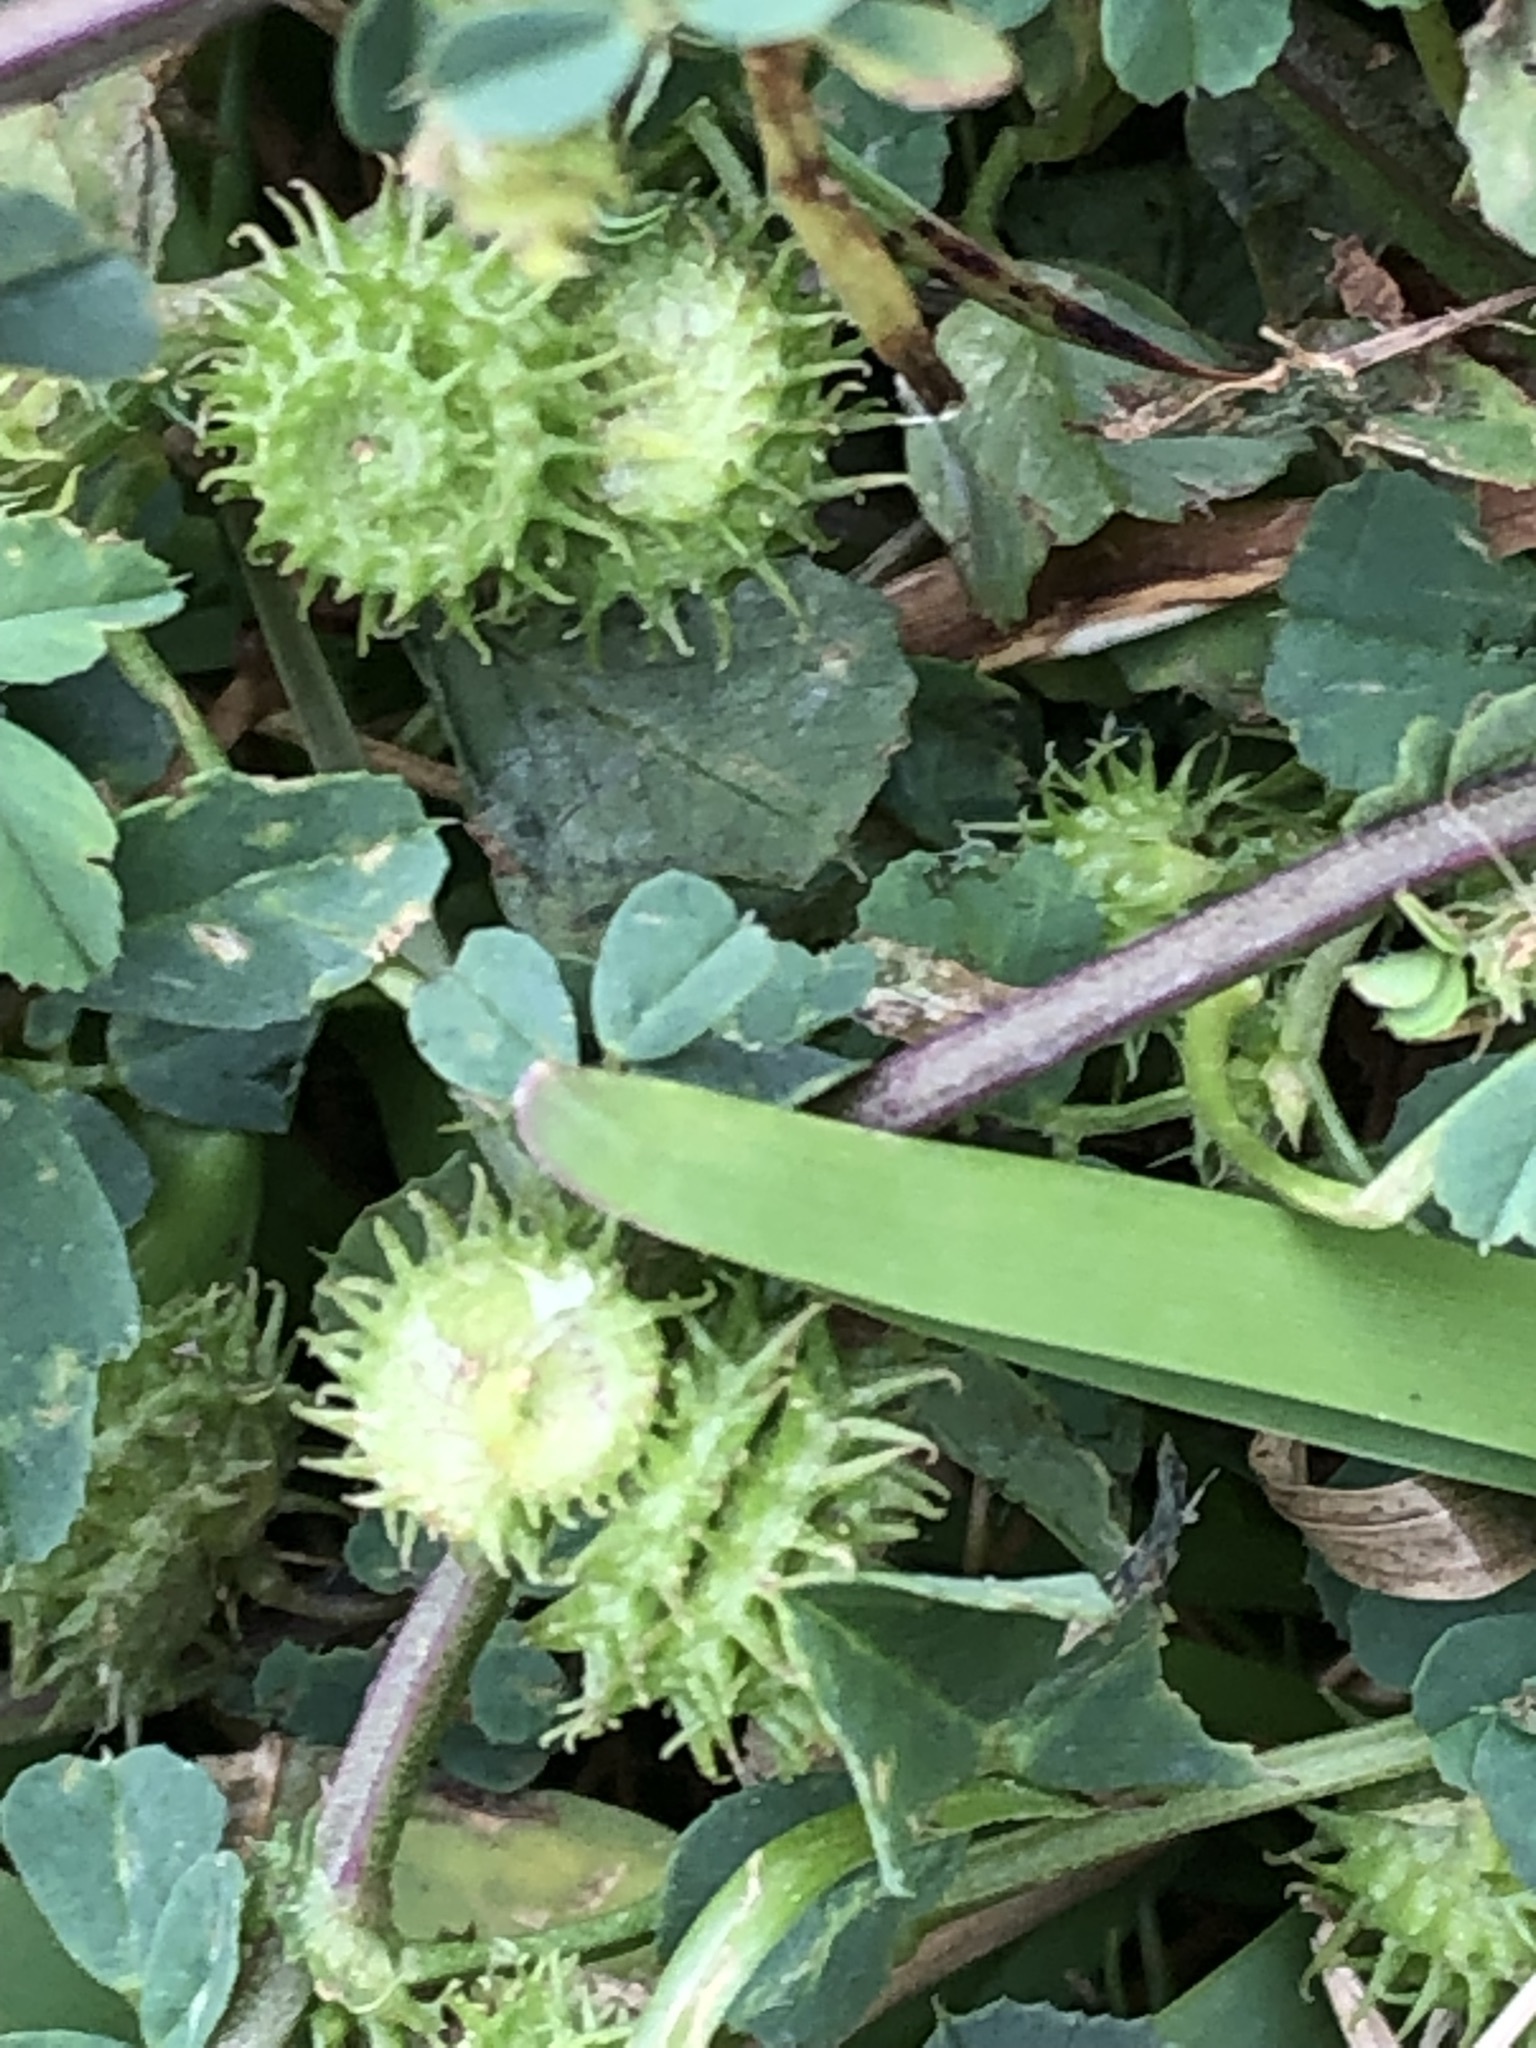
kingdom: Plantae
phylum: Tracheophyta
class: Magnoliopsida
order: Fabales
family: Fabaceae
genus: Medicago
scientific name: Medicago polymorpha
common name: Burclover
